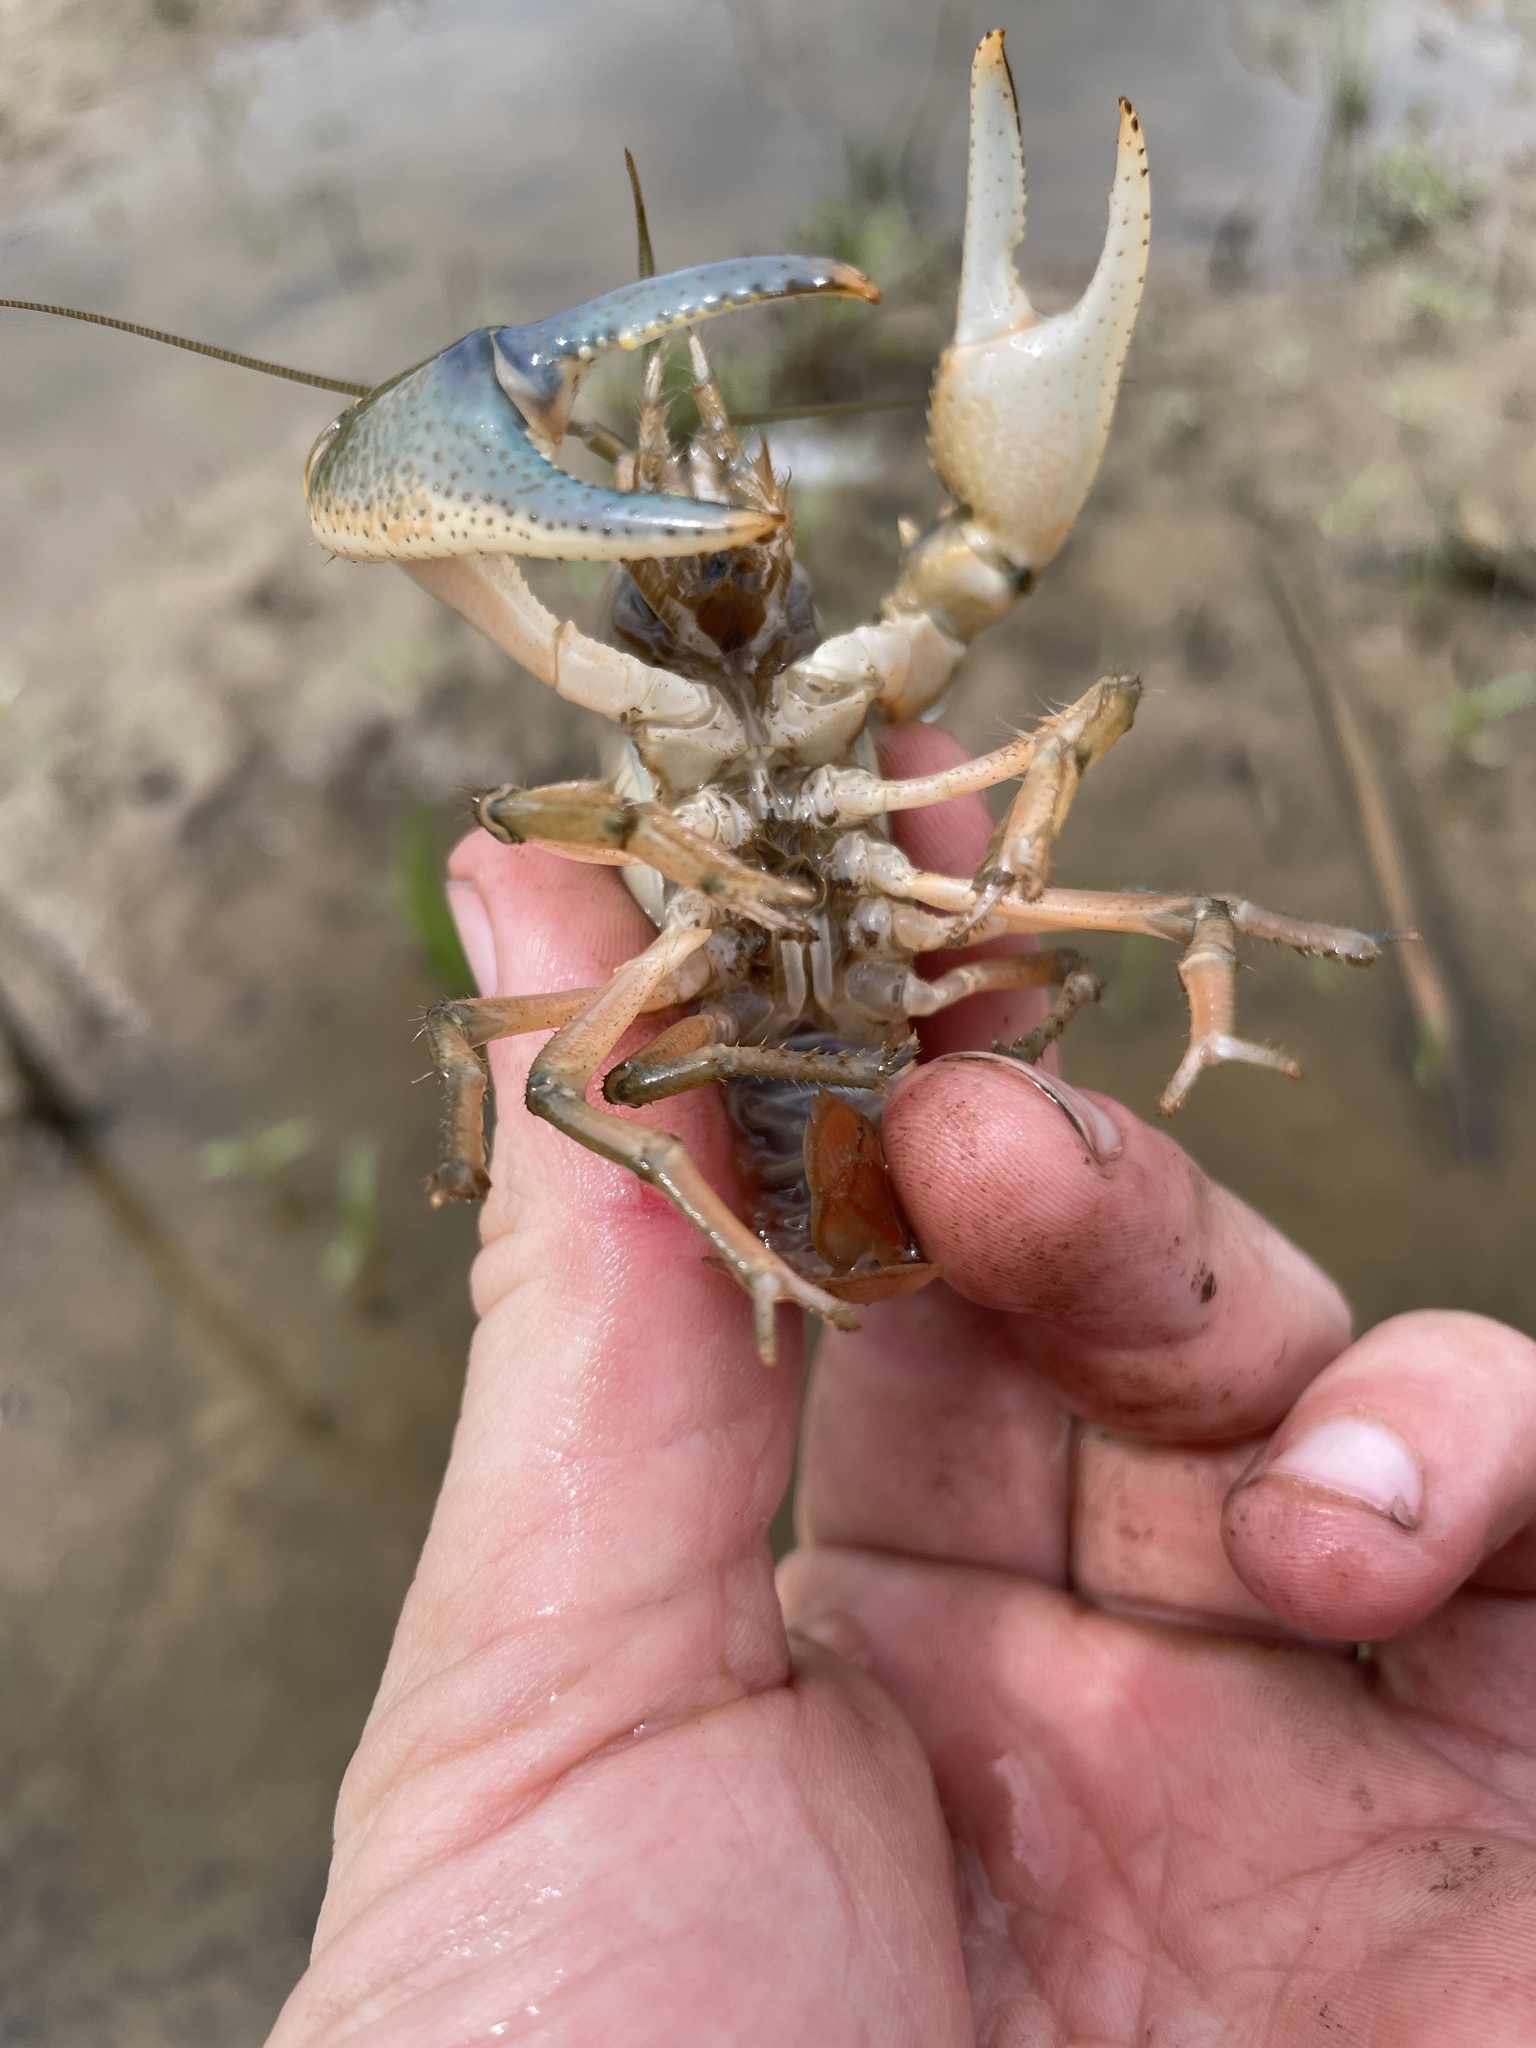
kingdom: Animalia
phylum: Arthropoda
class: Malacostraca
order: Decapoda
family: Cambaridae
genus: Procambarus
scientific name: Procambarus gracilis
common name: Prairie crayfish
